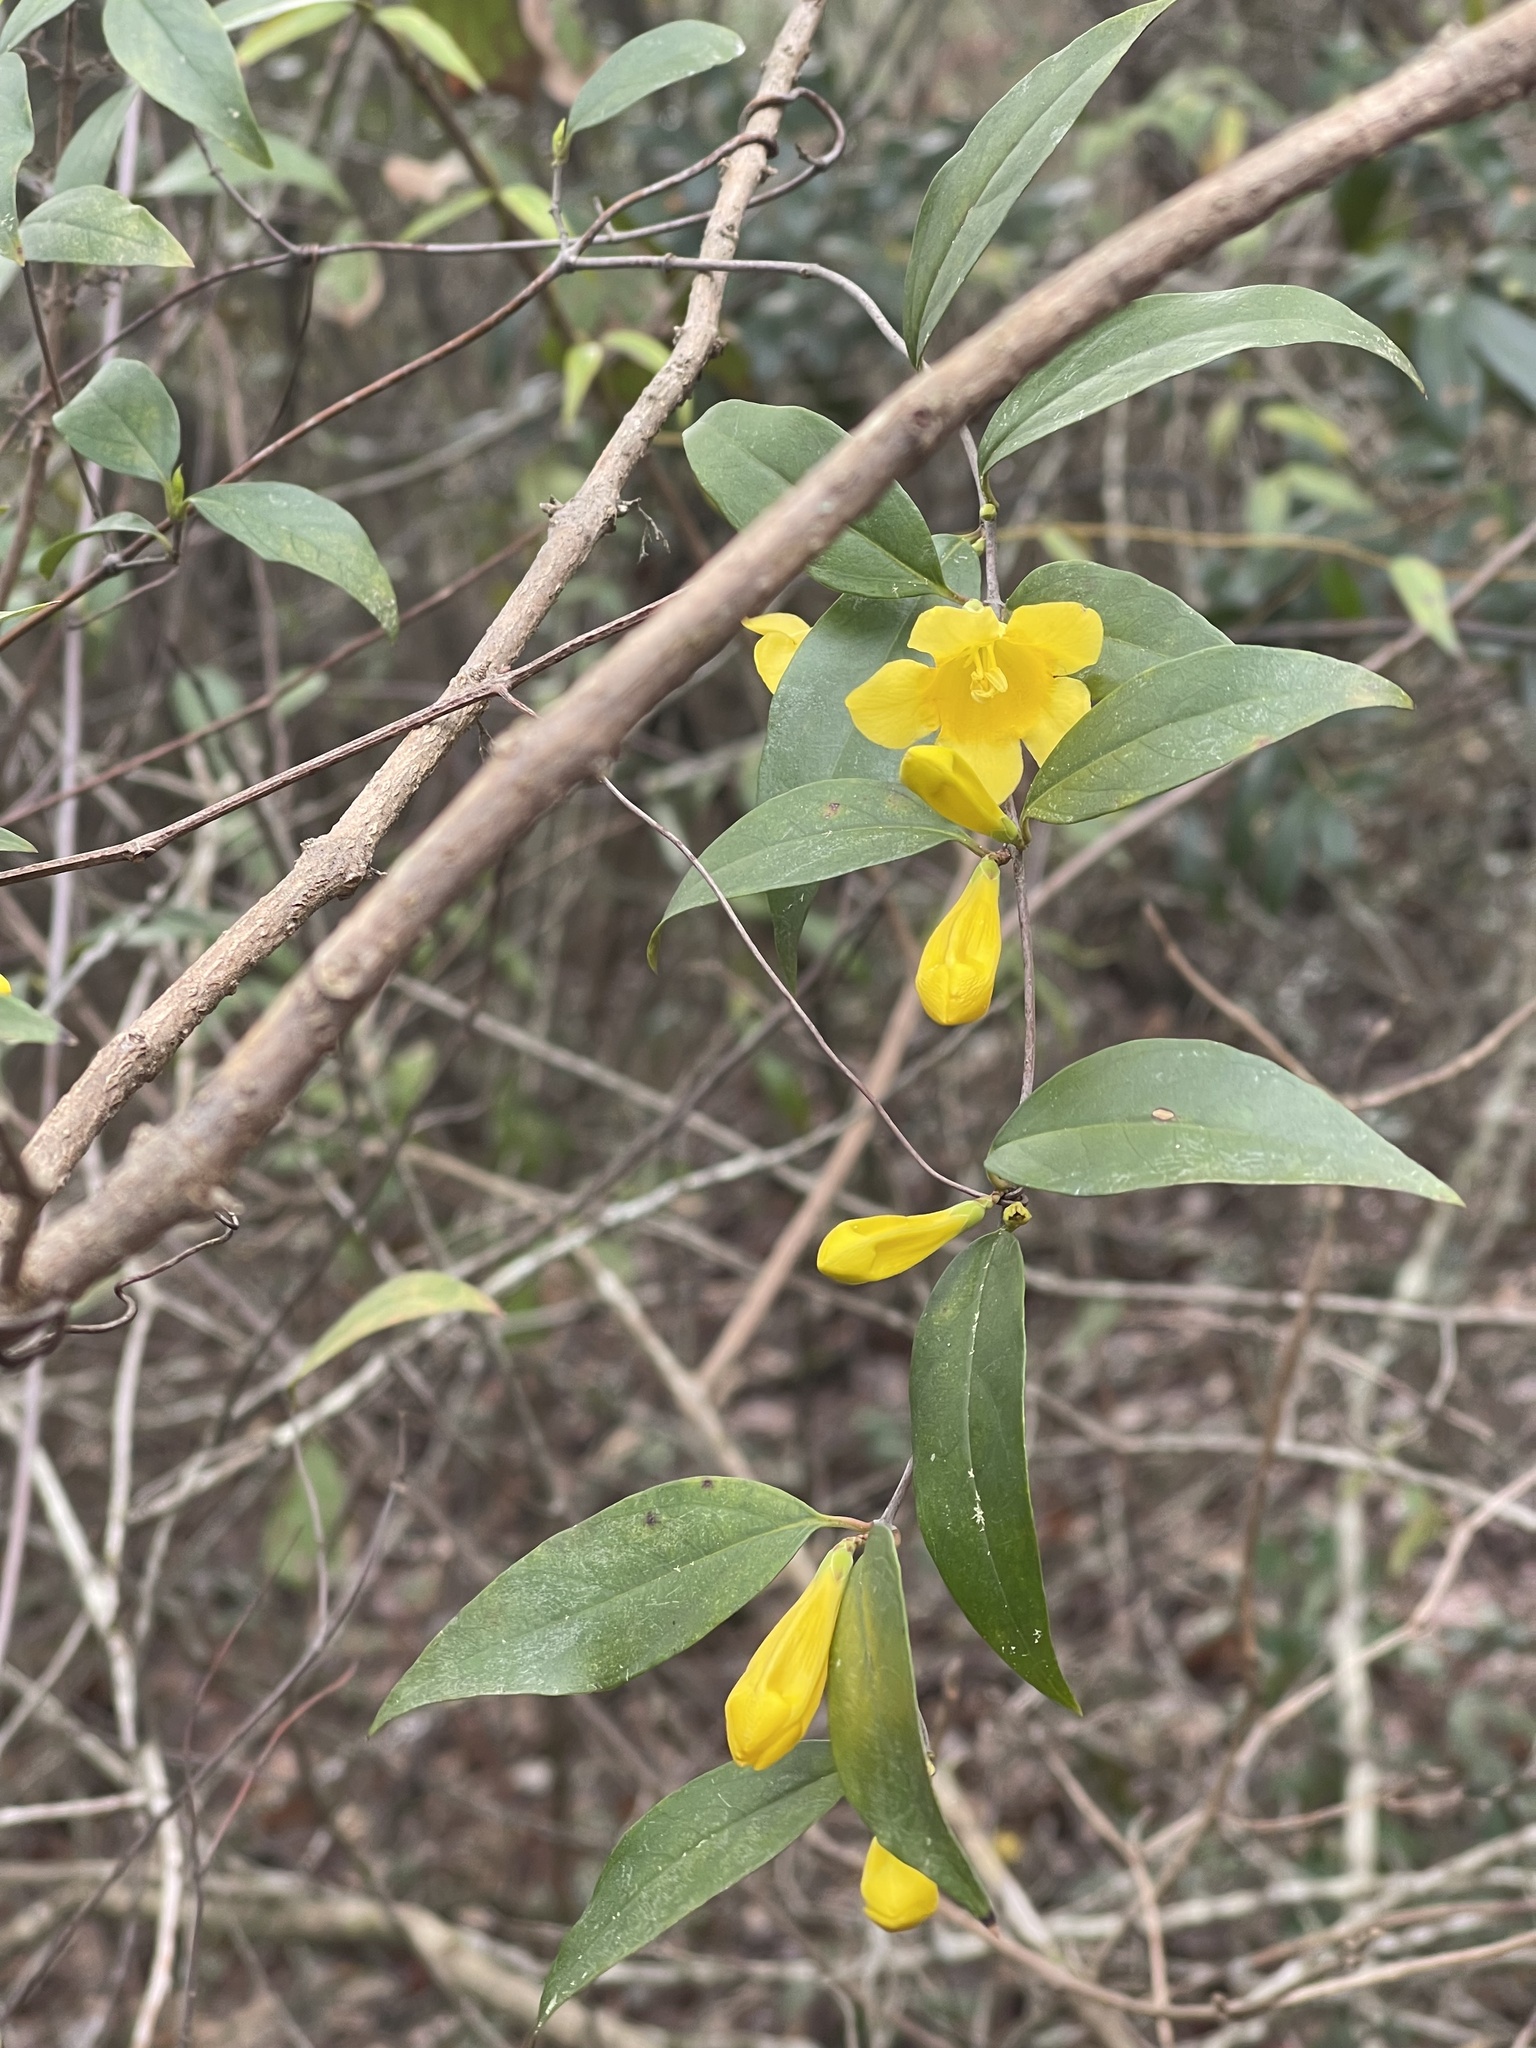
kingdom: Plantae
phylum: Tracheophyta
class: Magnoliopsida
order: Gentianales
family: Gelsemiaceae
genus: Gelsemium
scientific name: Gelsemium sempervirens
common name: Carolina-jasmine
